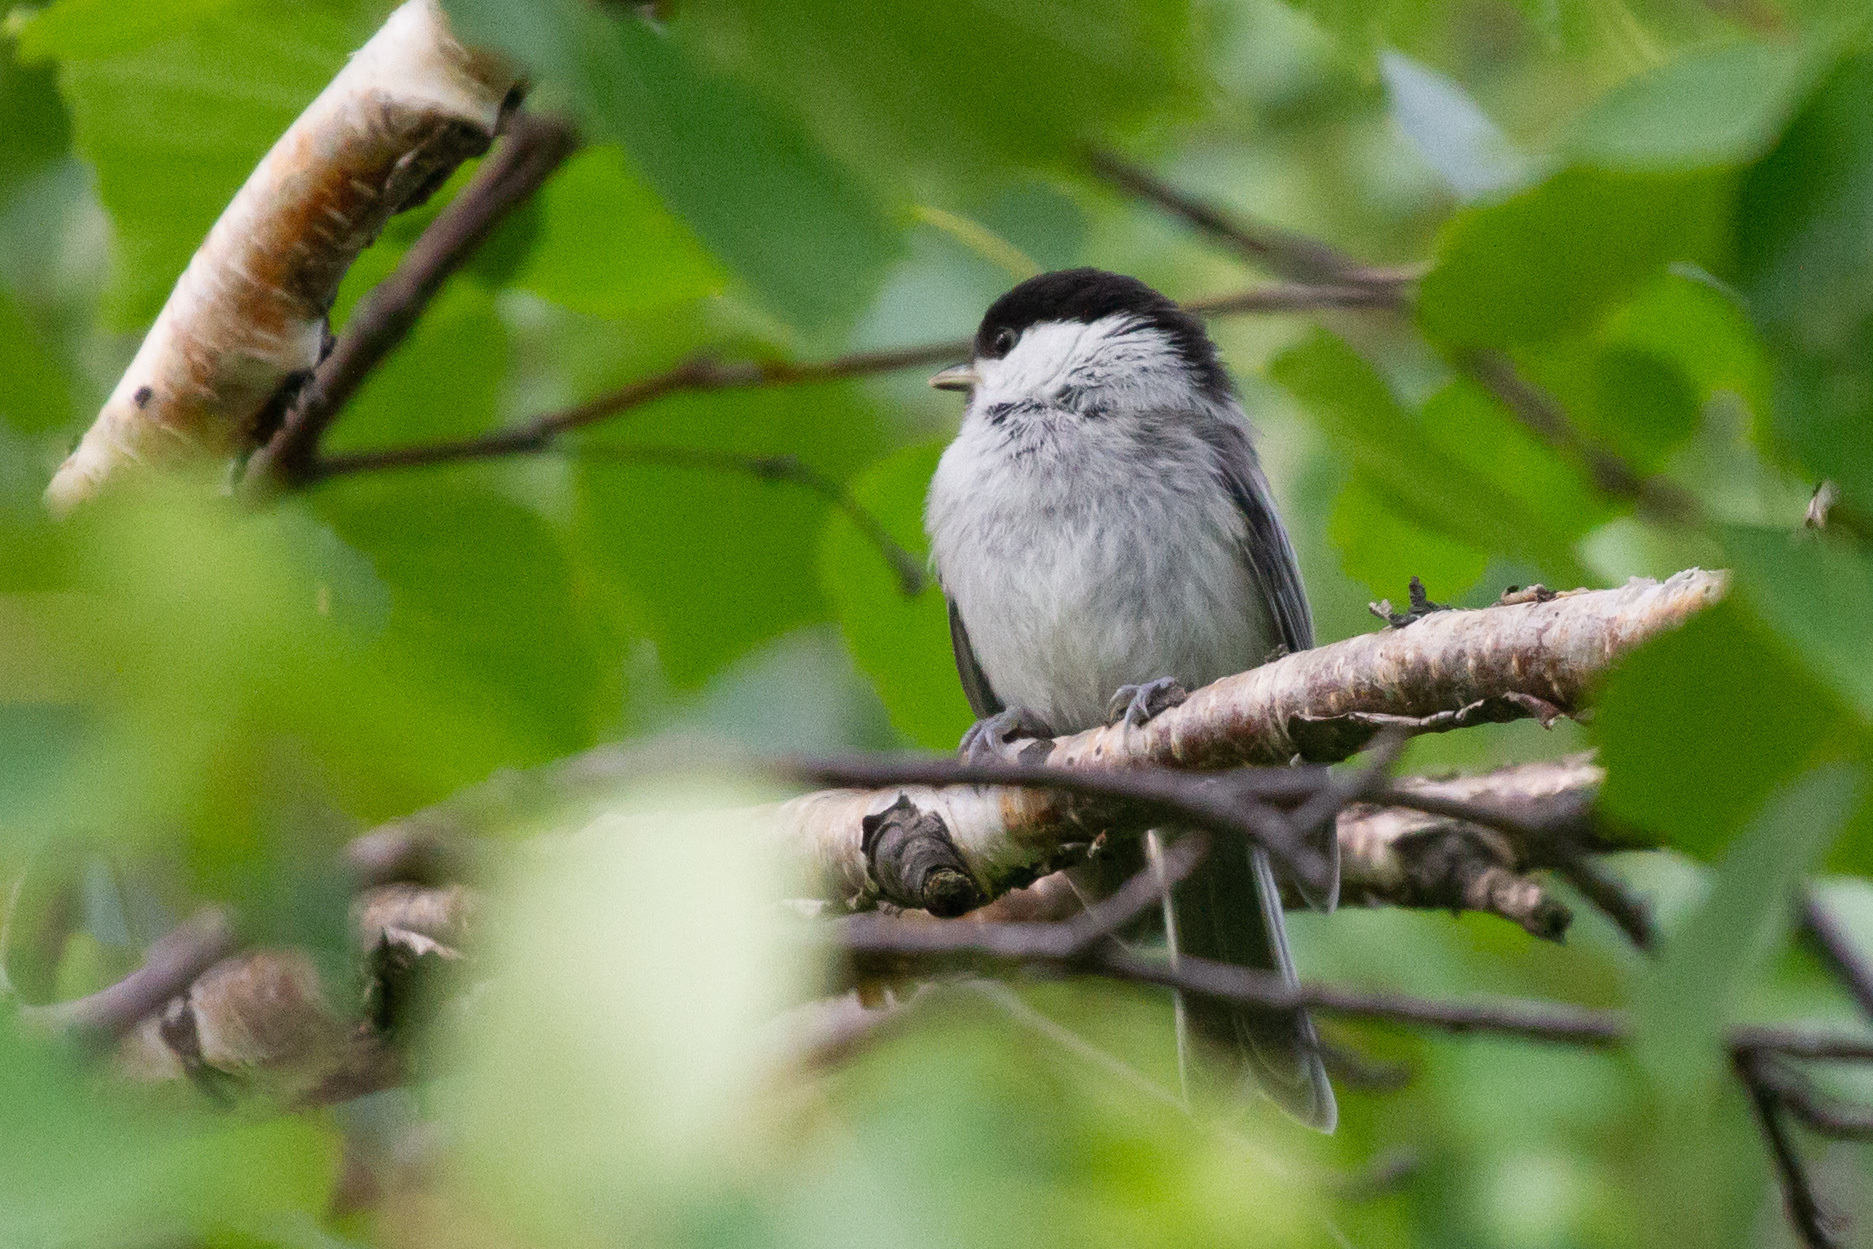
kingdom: Animalia
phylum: Chordata
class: Aves
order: Passeriformes
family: Paridae
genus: Poecile
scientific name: Poecile montanus
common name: Willow tit
